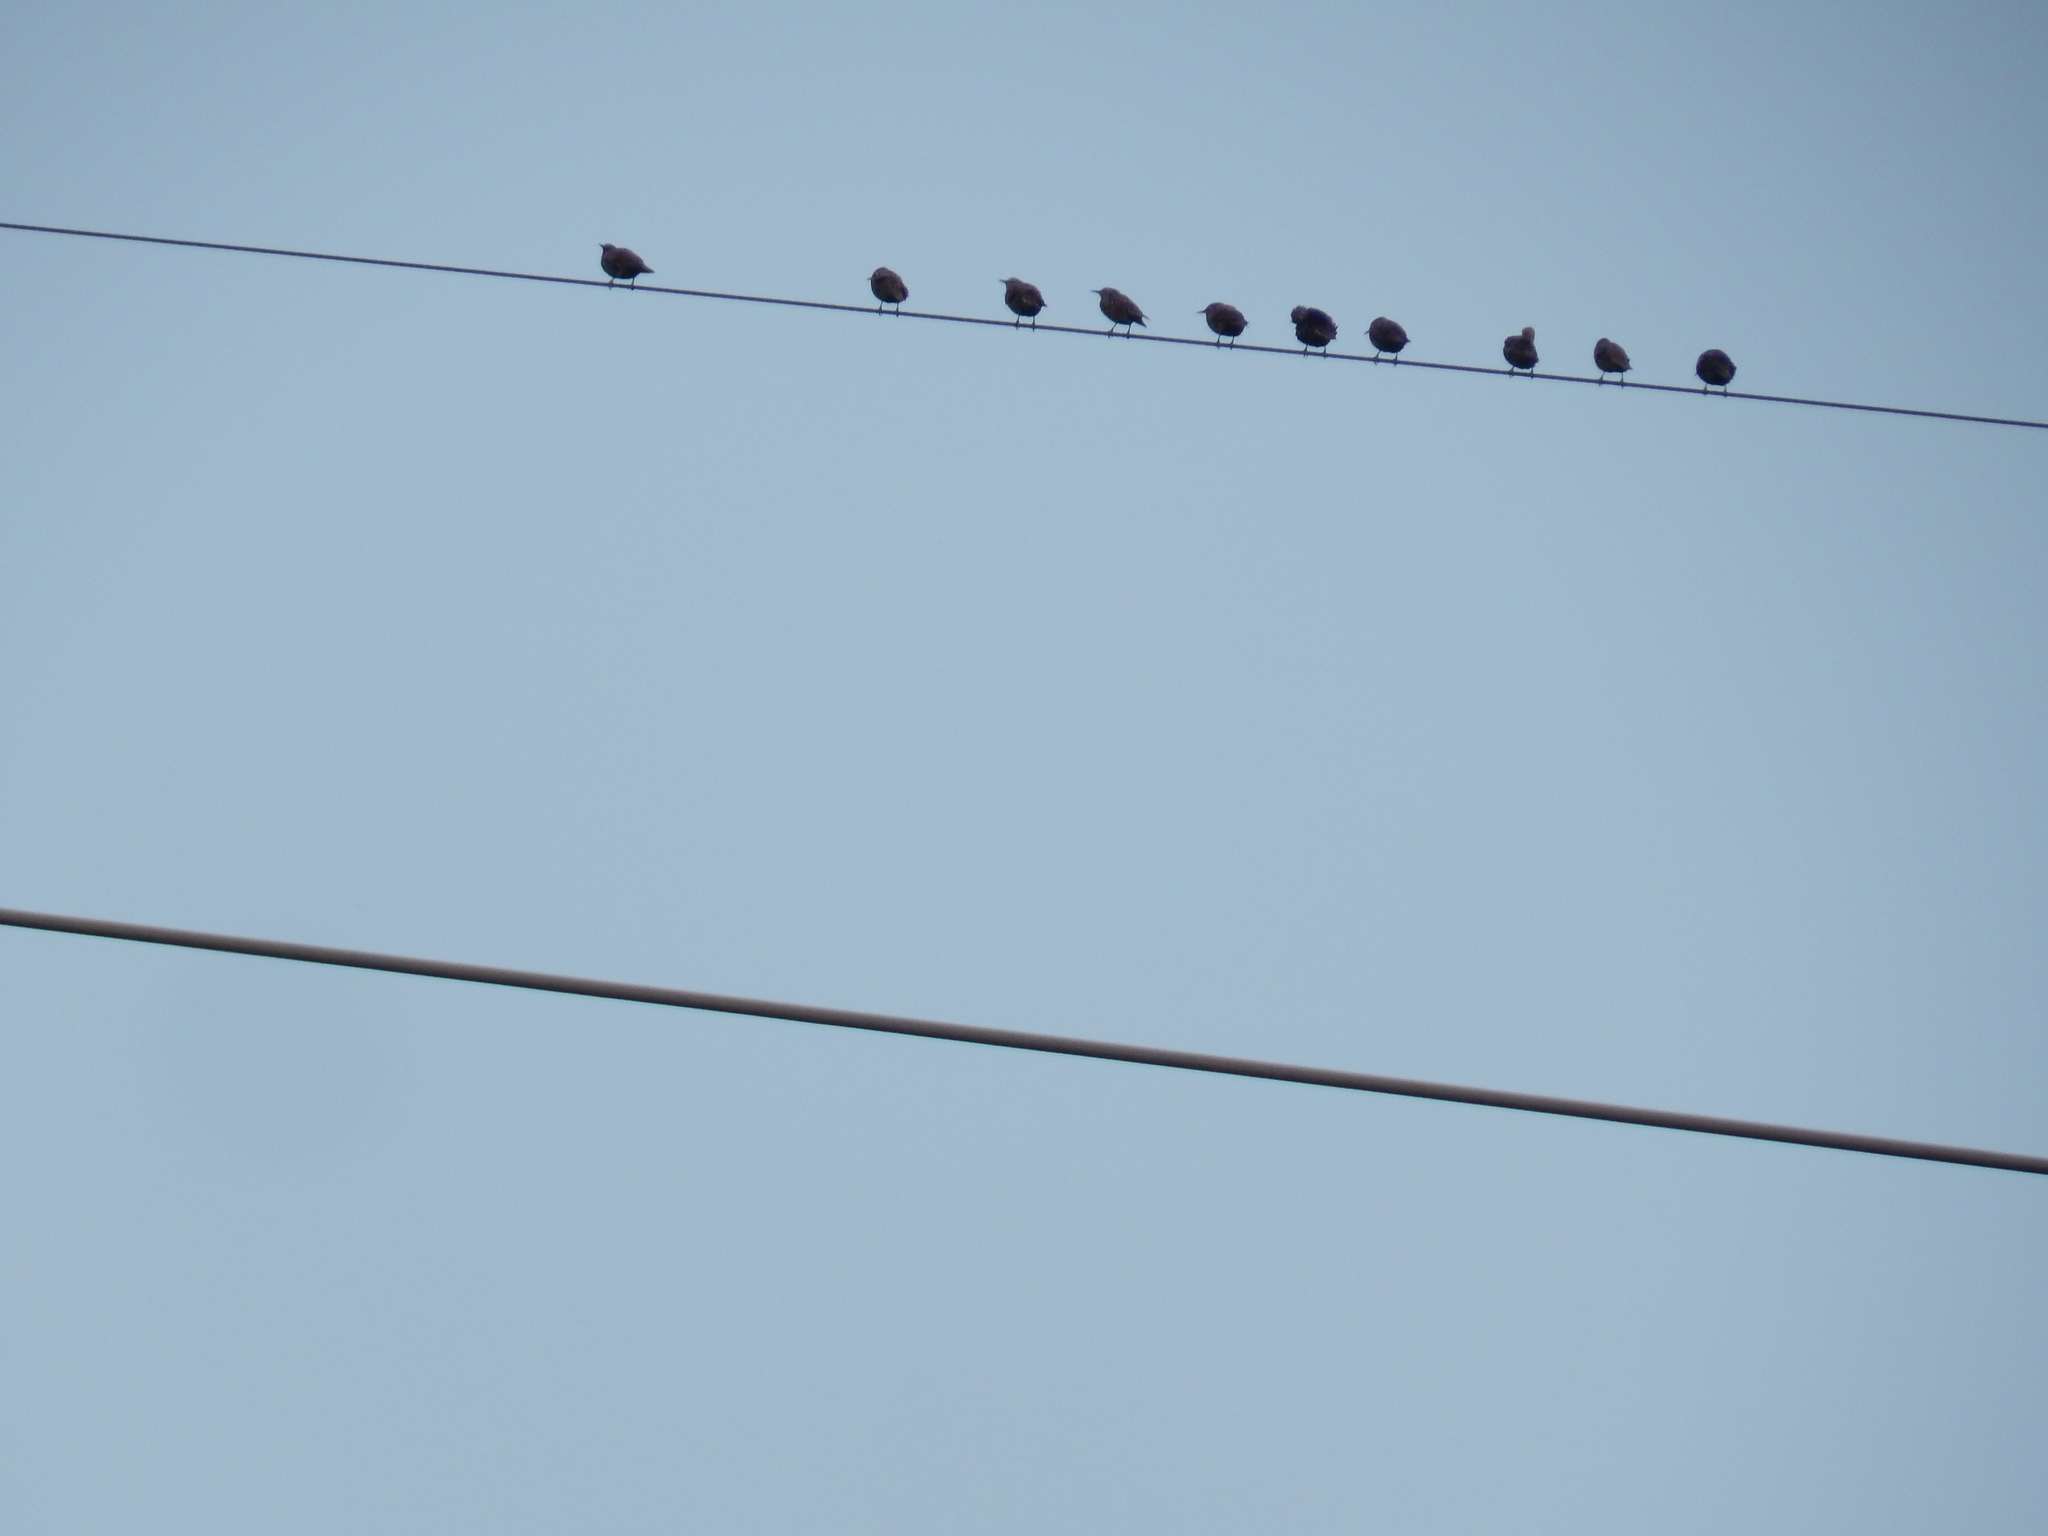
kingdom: Animalia
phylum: Chordata
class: Aves
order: Passeriformes
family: Sturnidae
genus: Sturnus
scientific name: Sturnus vulgaris
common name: Common starling
